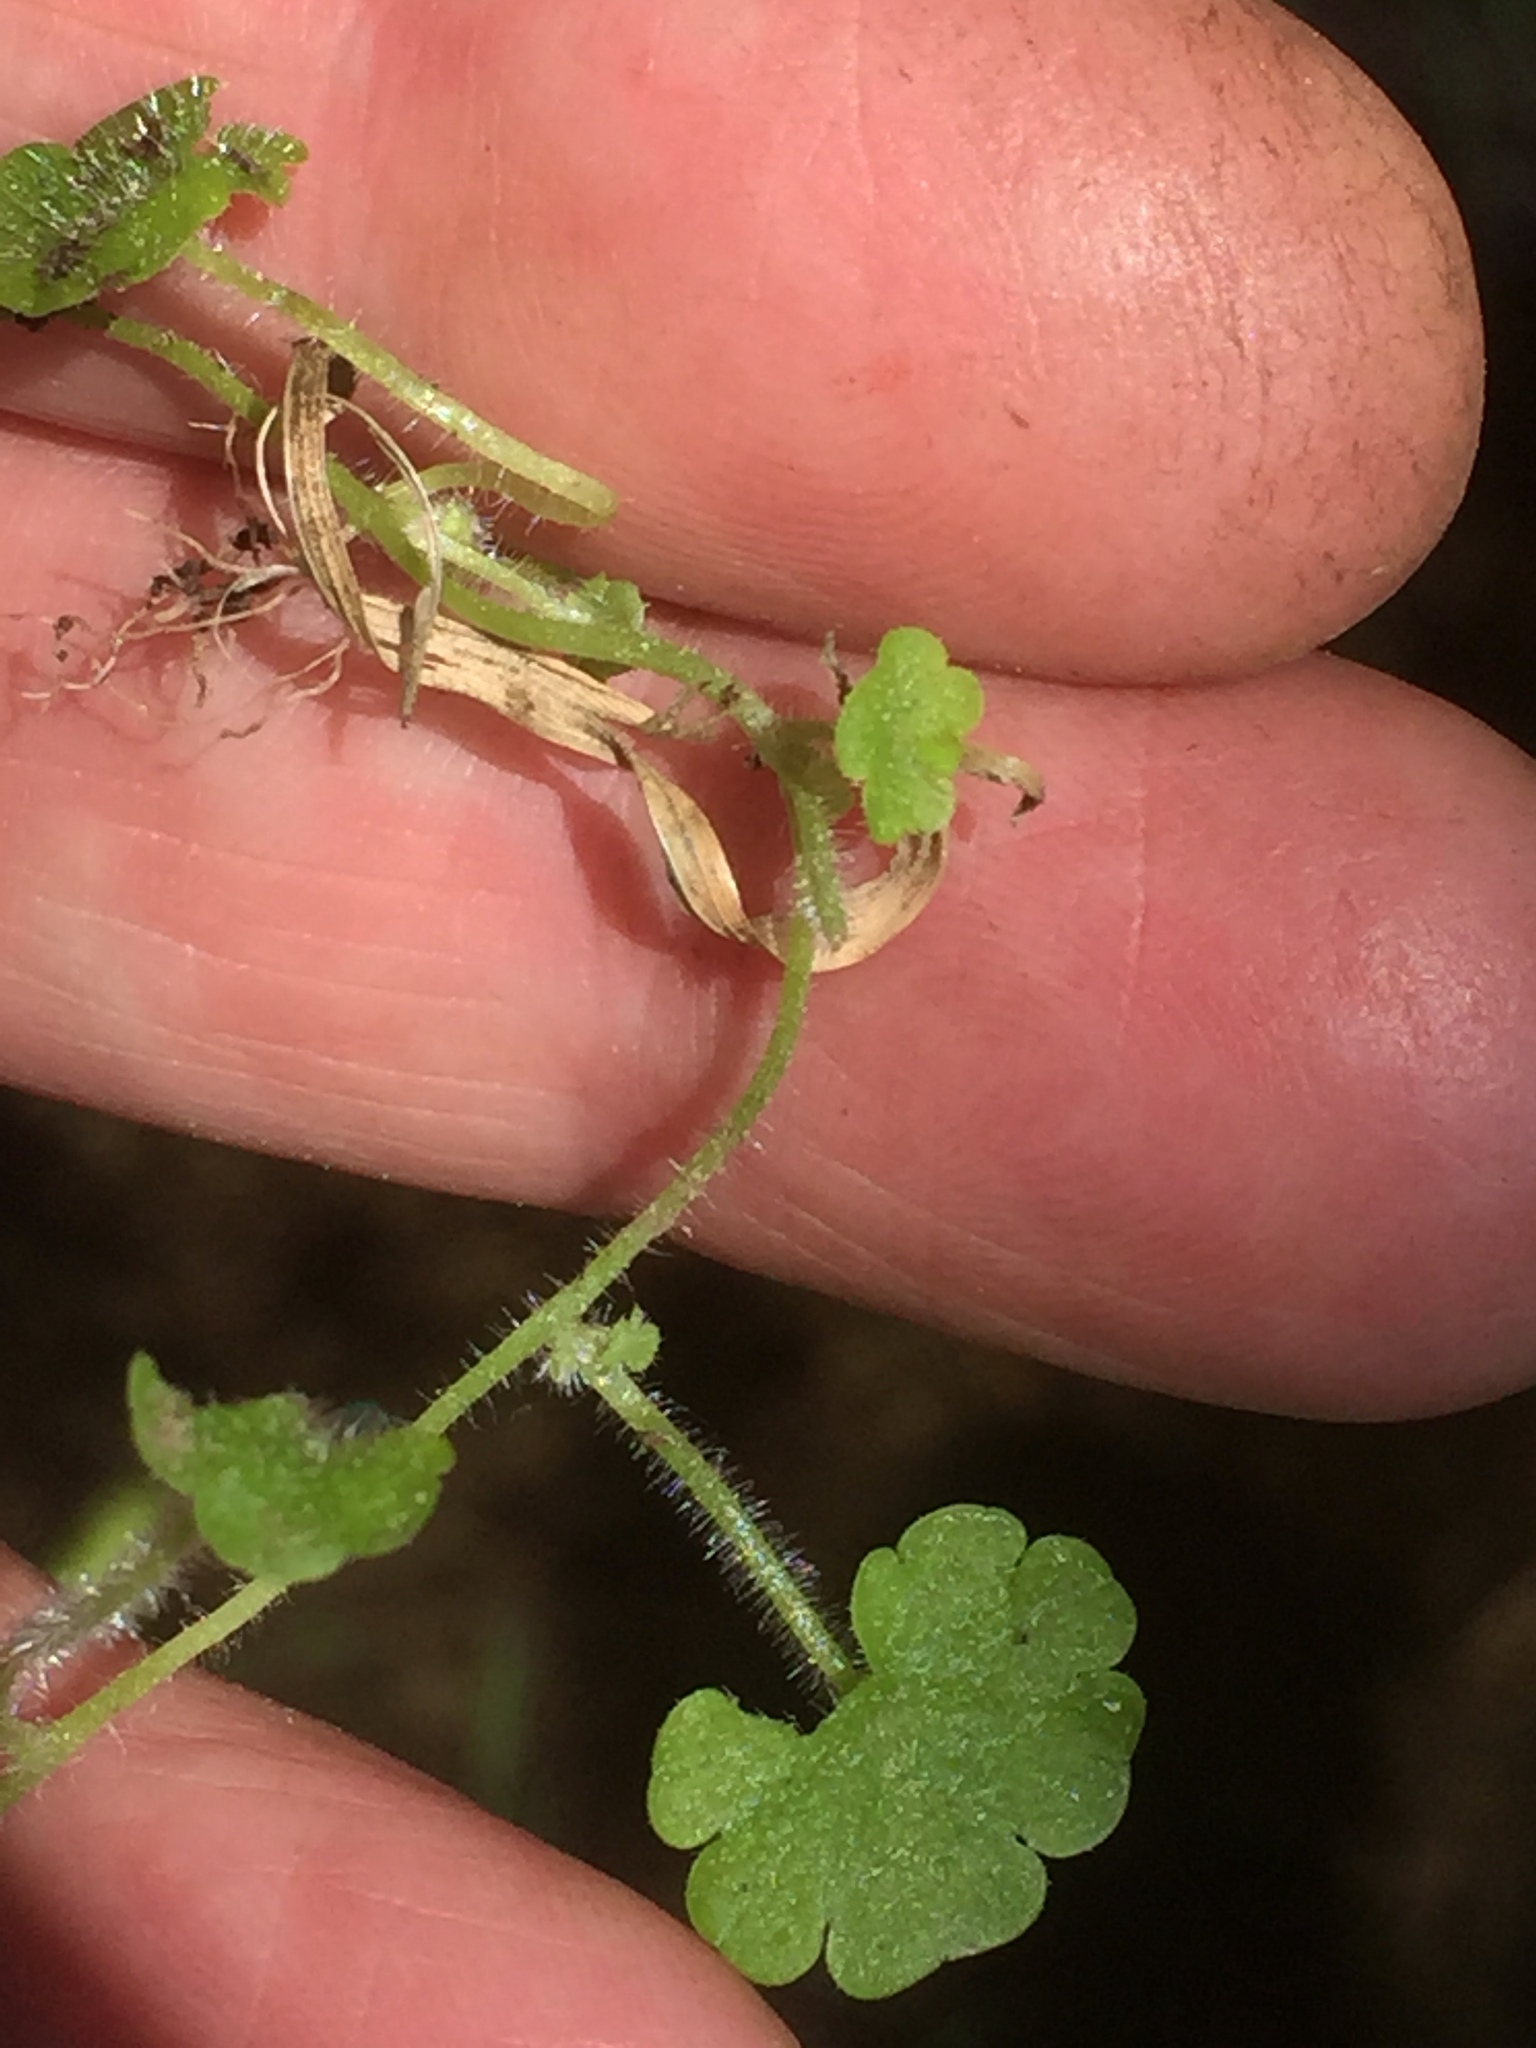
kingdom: Plantae
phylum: Tracheophyta
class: Magnoliopsida
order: Lamiales
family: Plantaginaceae
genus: Sibthorpia
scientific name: Sibthorpia europaea
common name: Cornish moneywort
